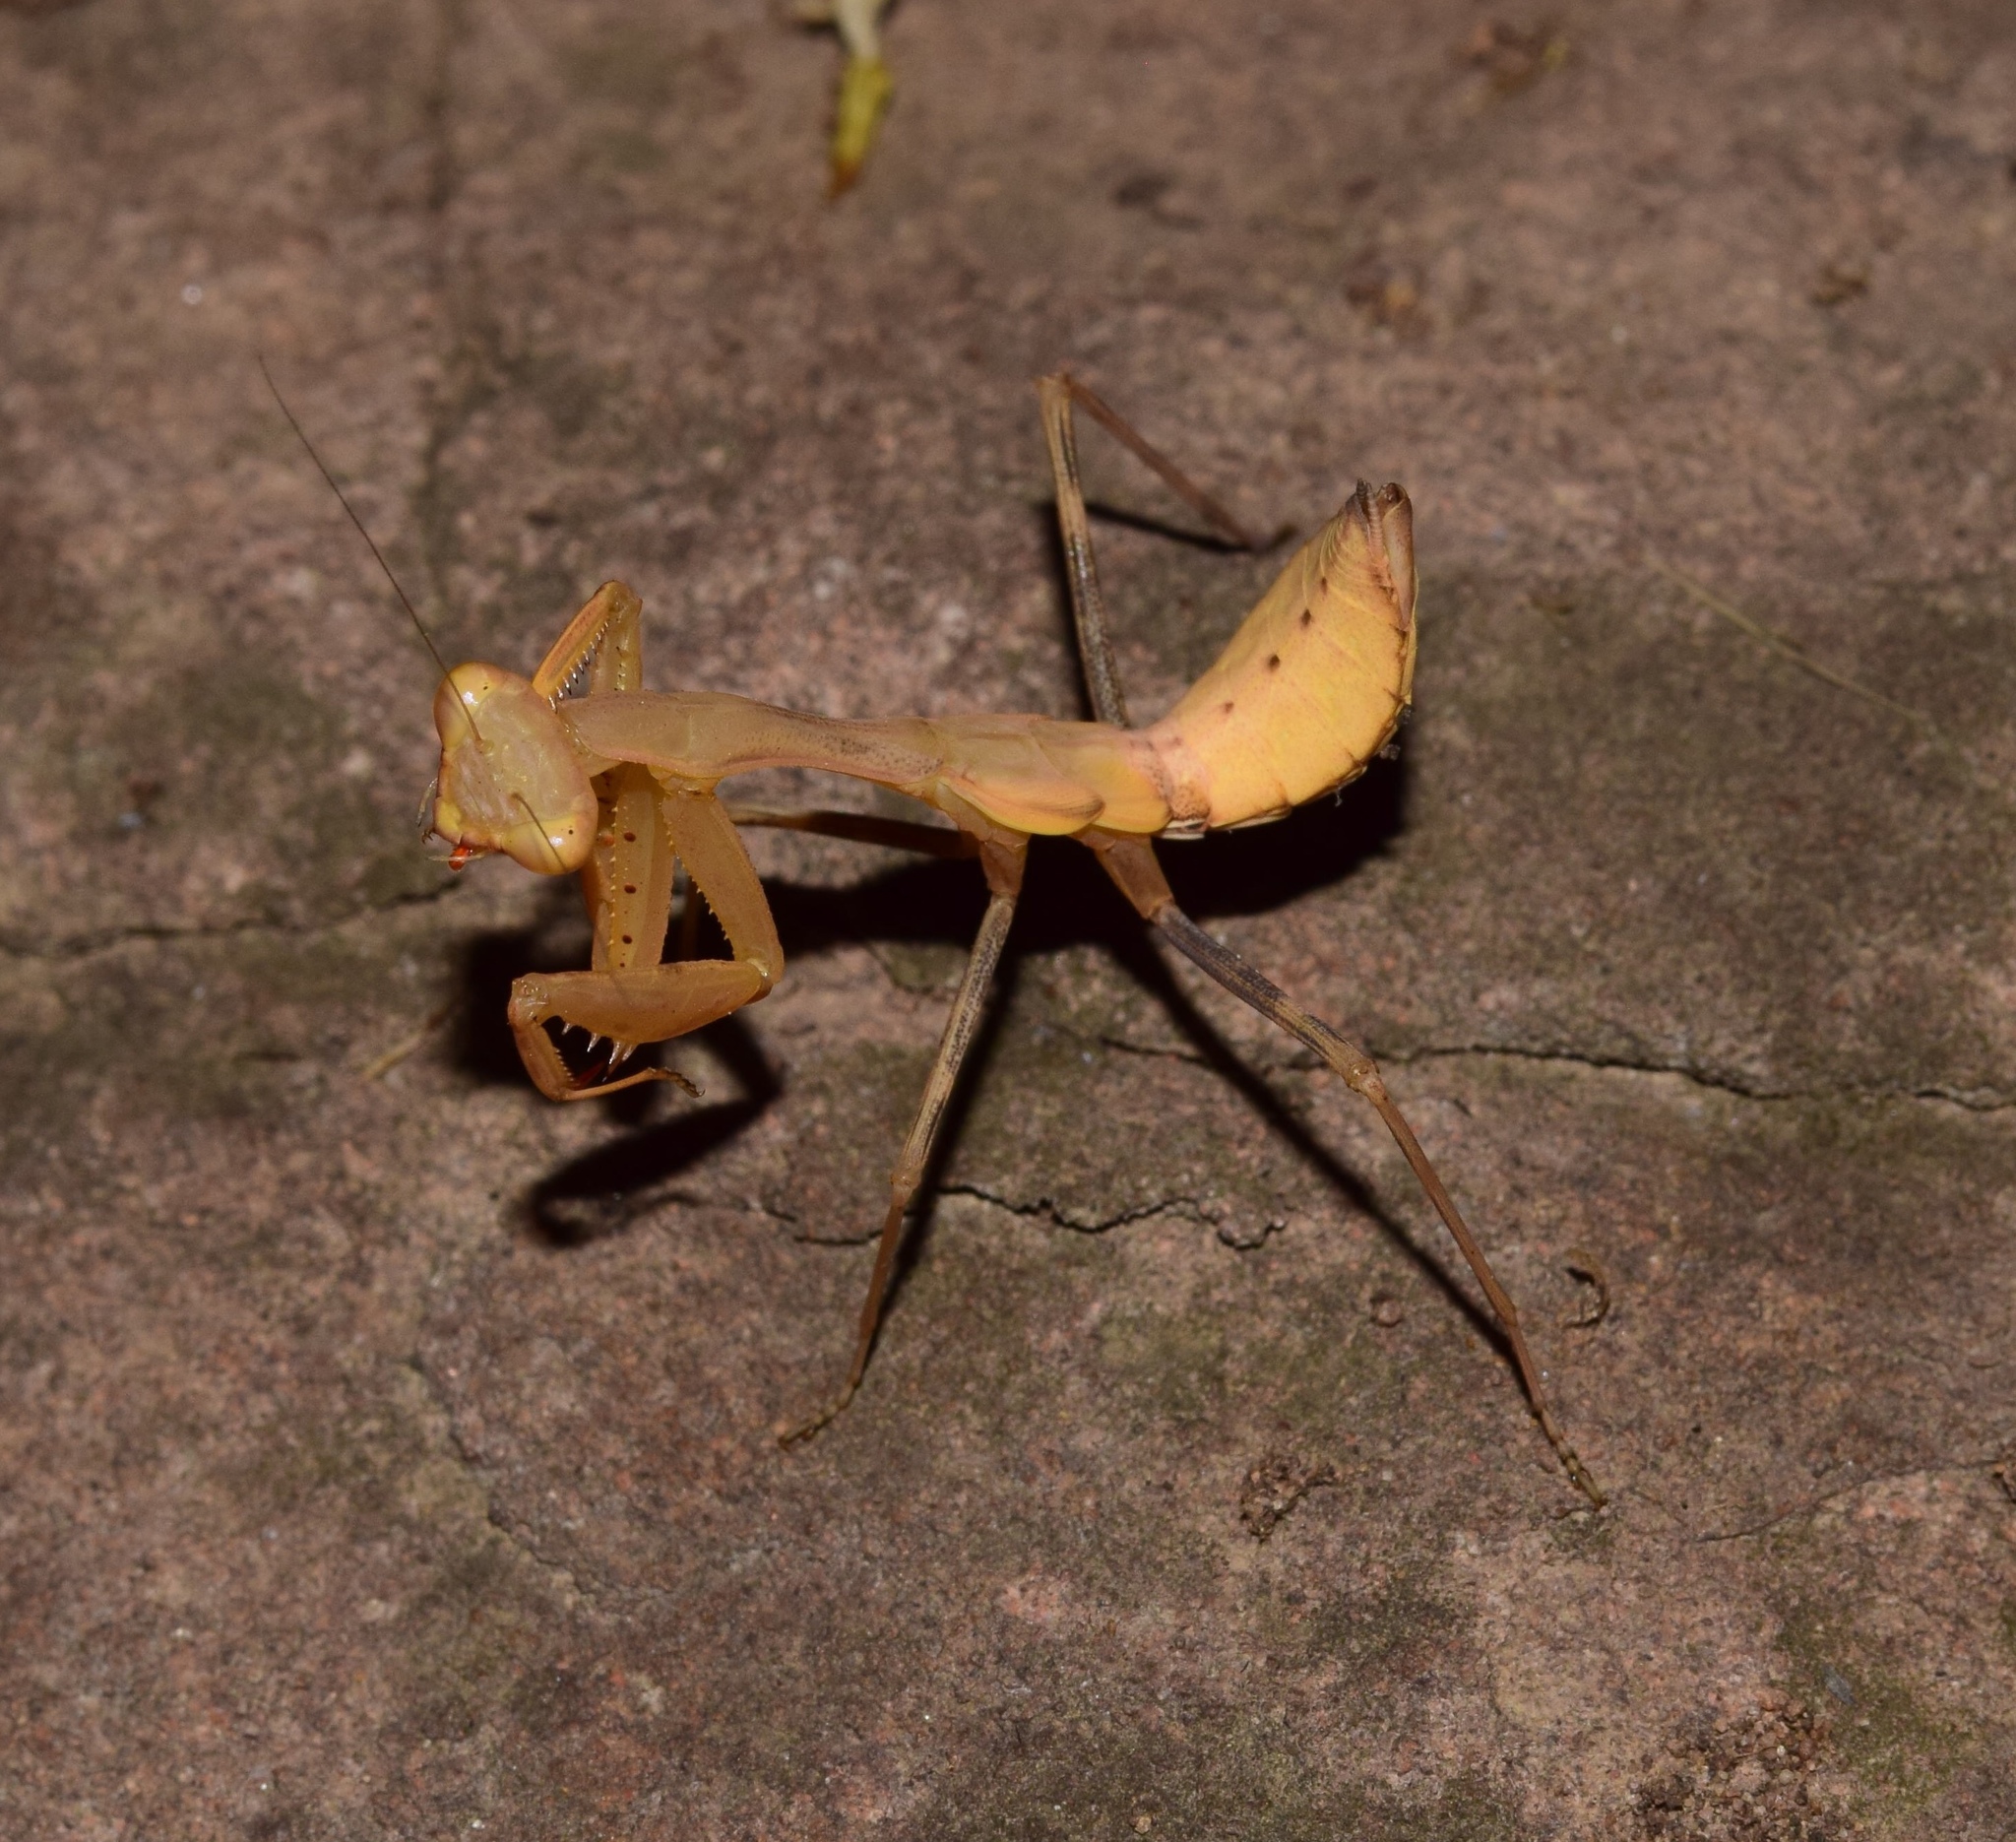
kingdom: Animalia
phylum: Arthropoda
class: Insecta
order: Mantodea
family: Miomantidae
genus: Miomantis
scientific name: Miomantis caffra
